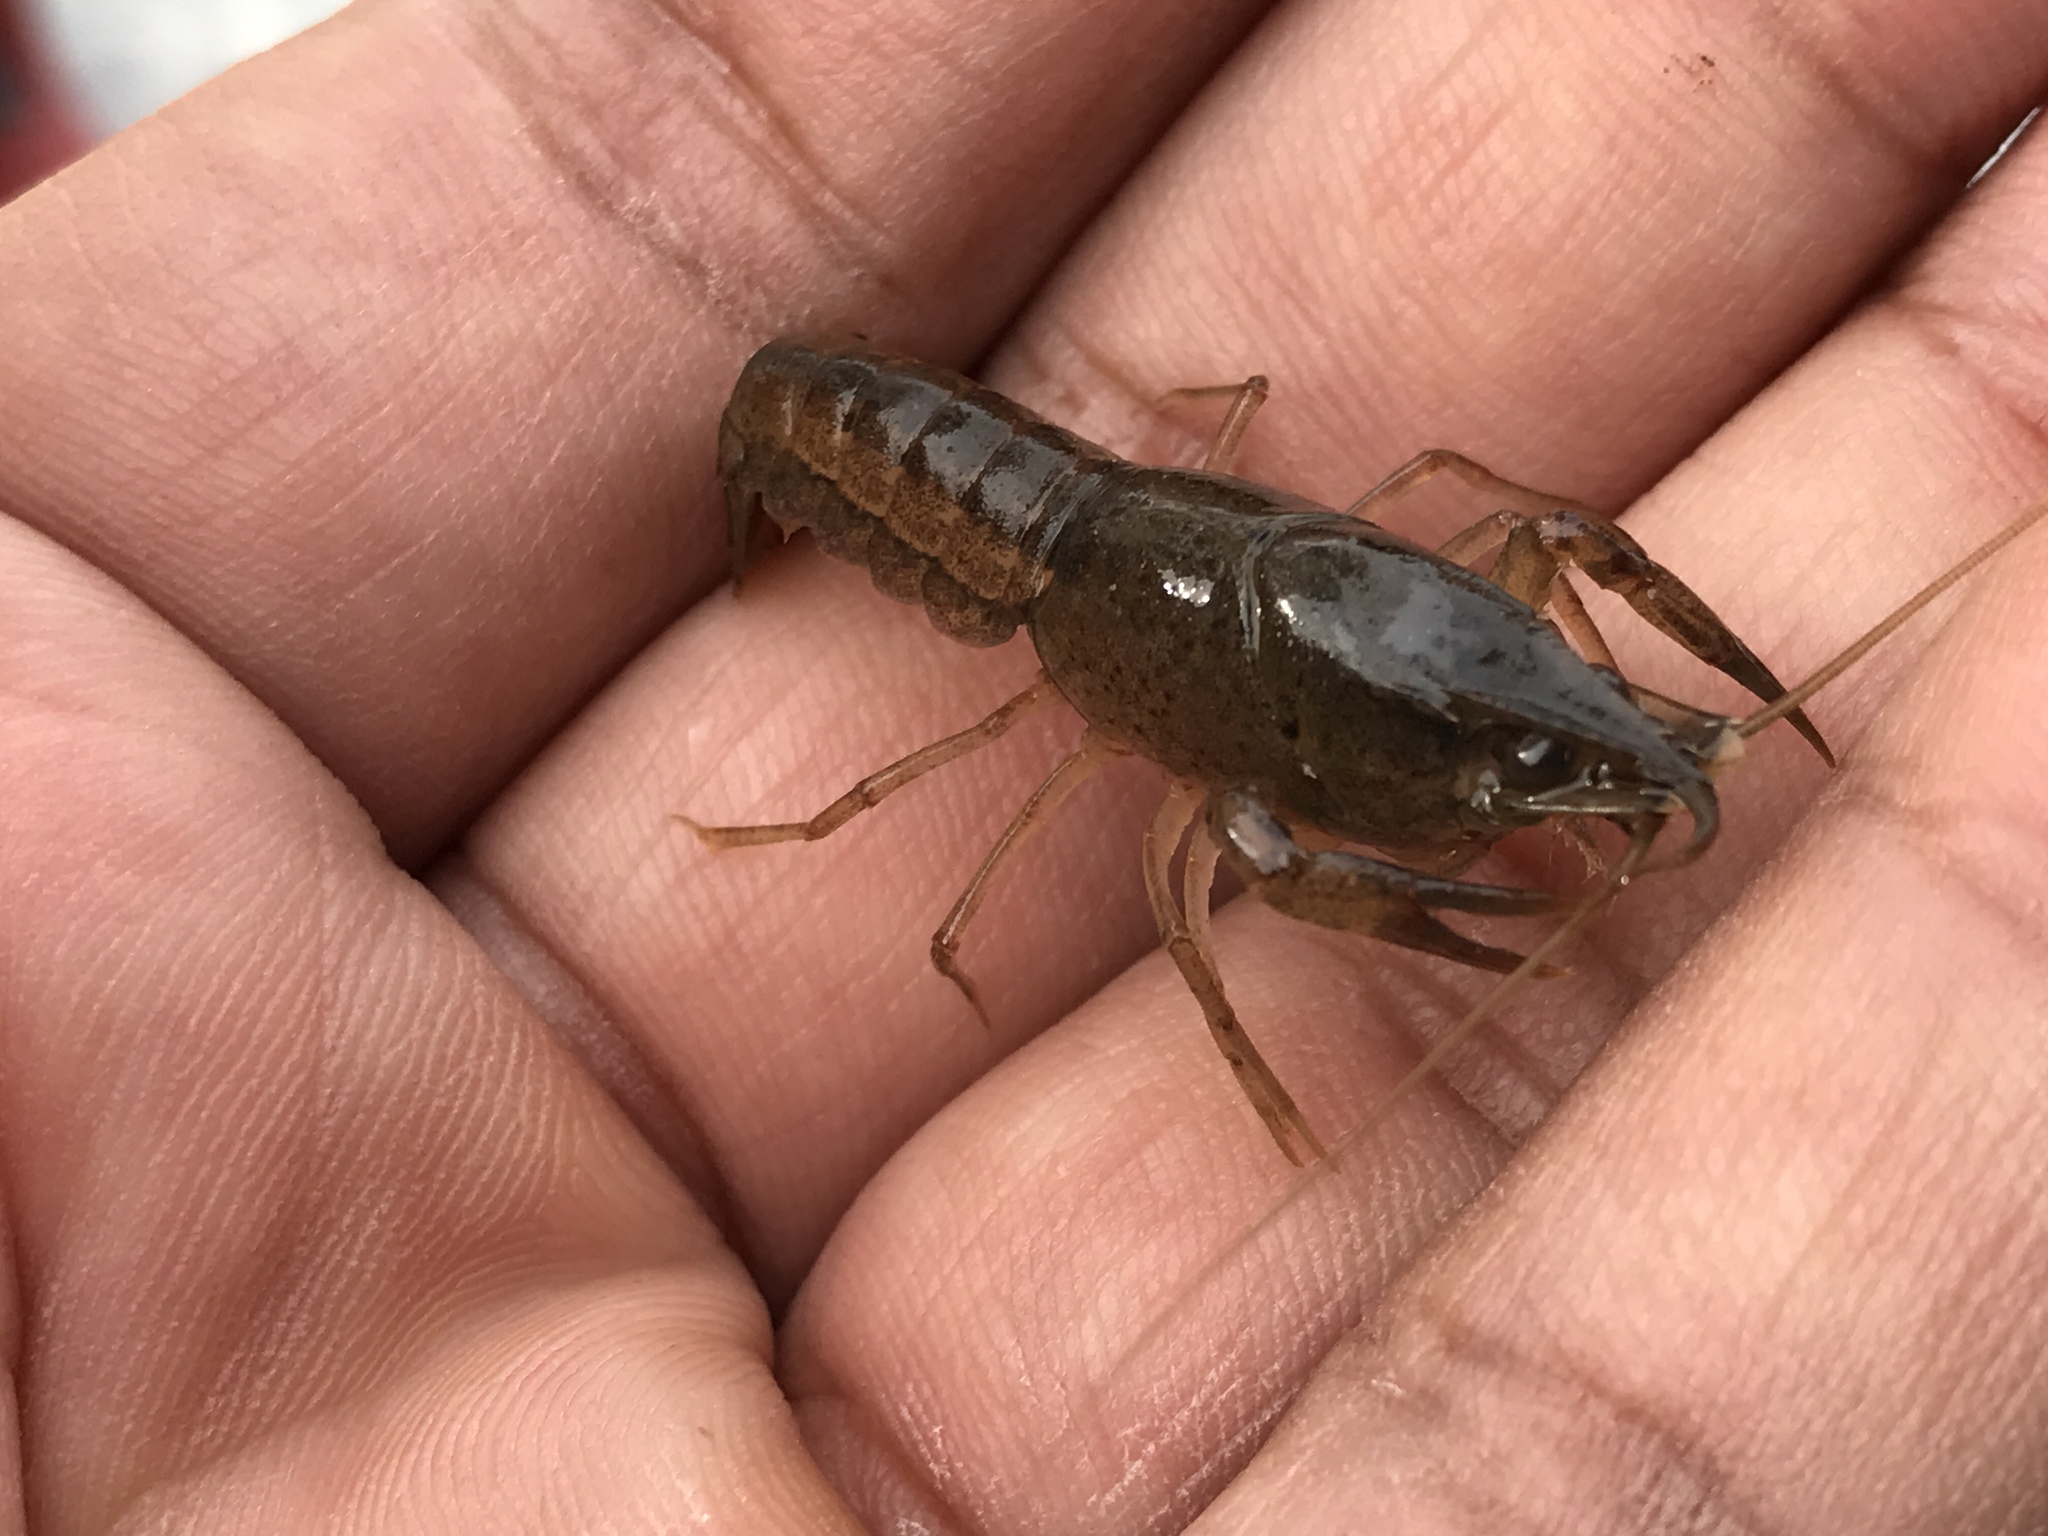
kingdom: Animalia
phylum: Arthropoda
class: Malacostraca
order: Decapoda
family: Cambaridae
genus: Procambarus
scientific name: Procambarus clarkii
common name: Red swamp crayfish
